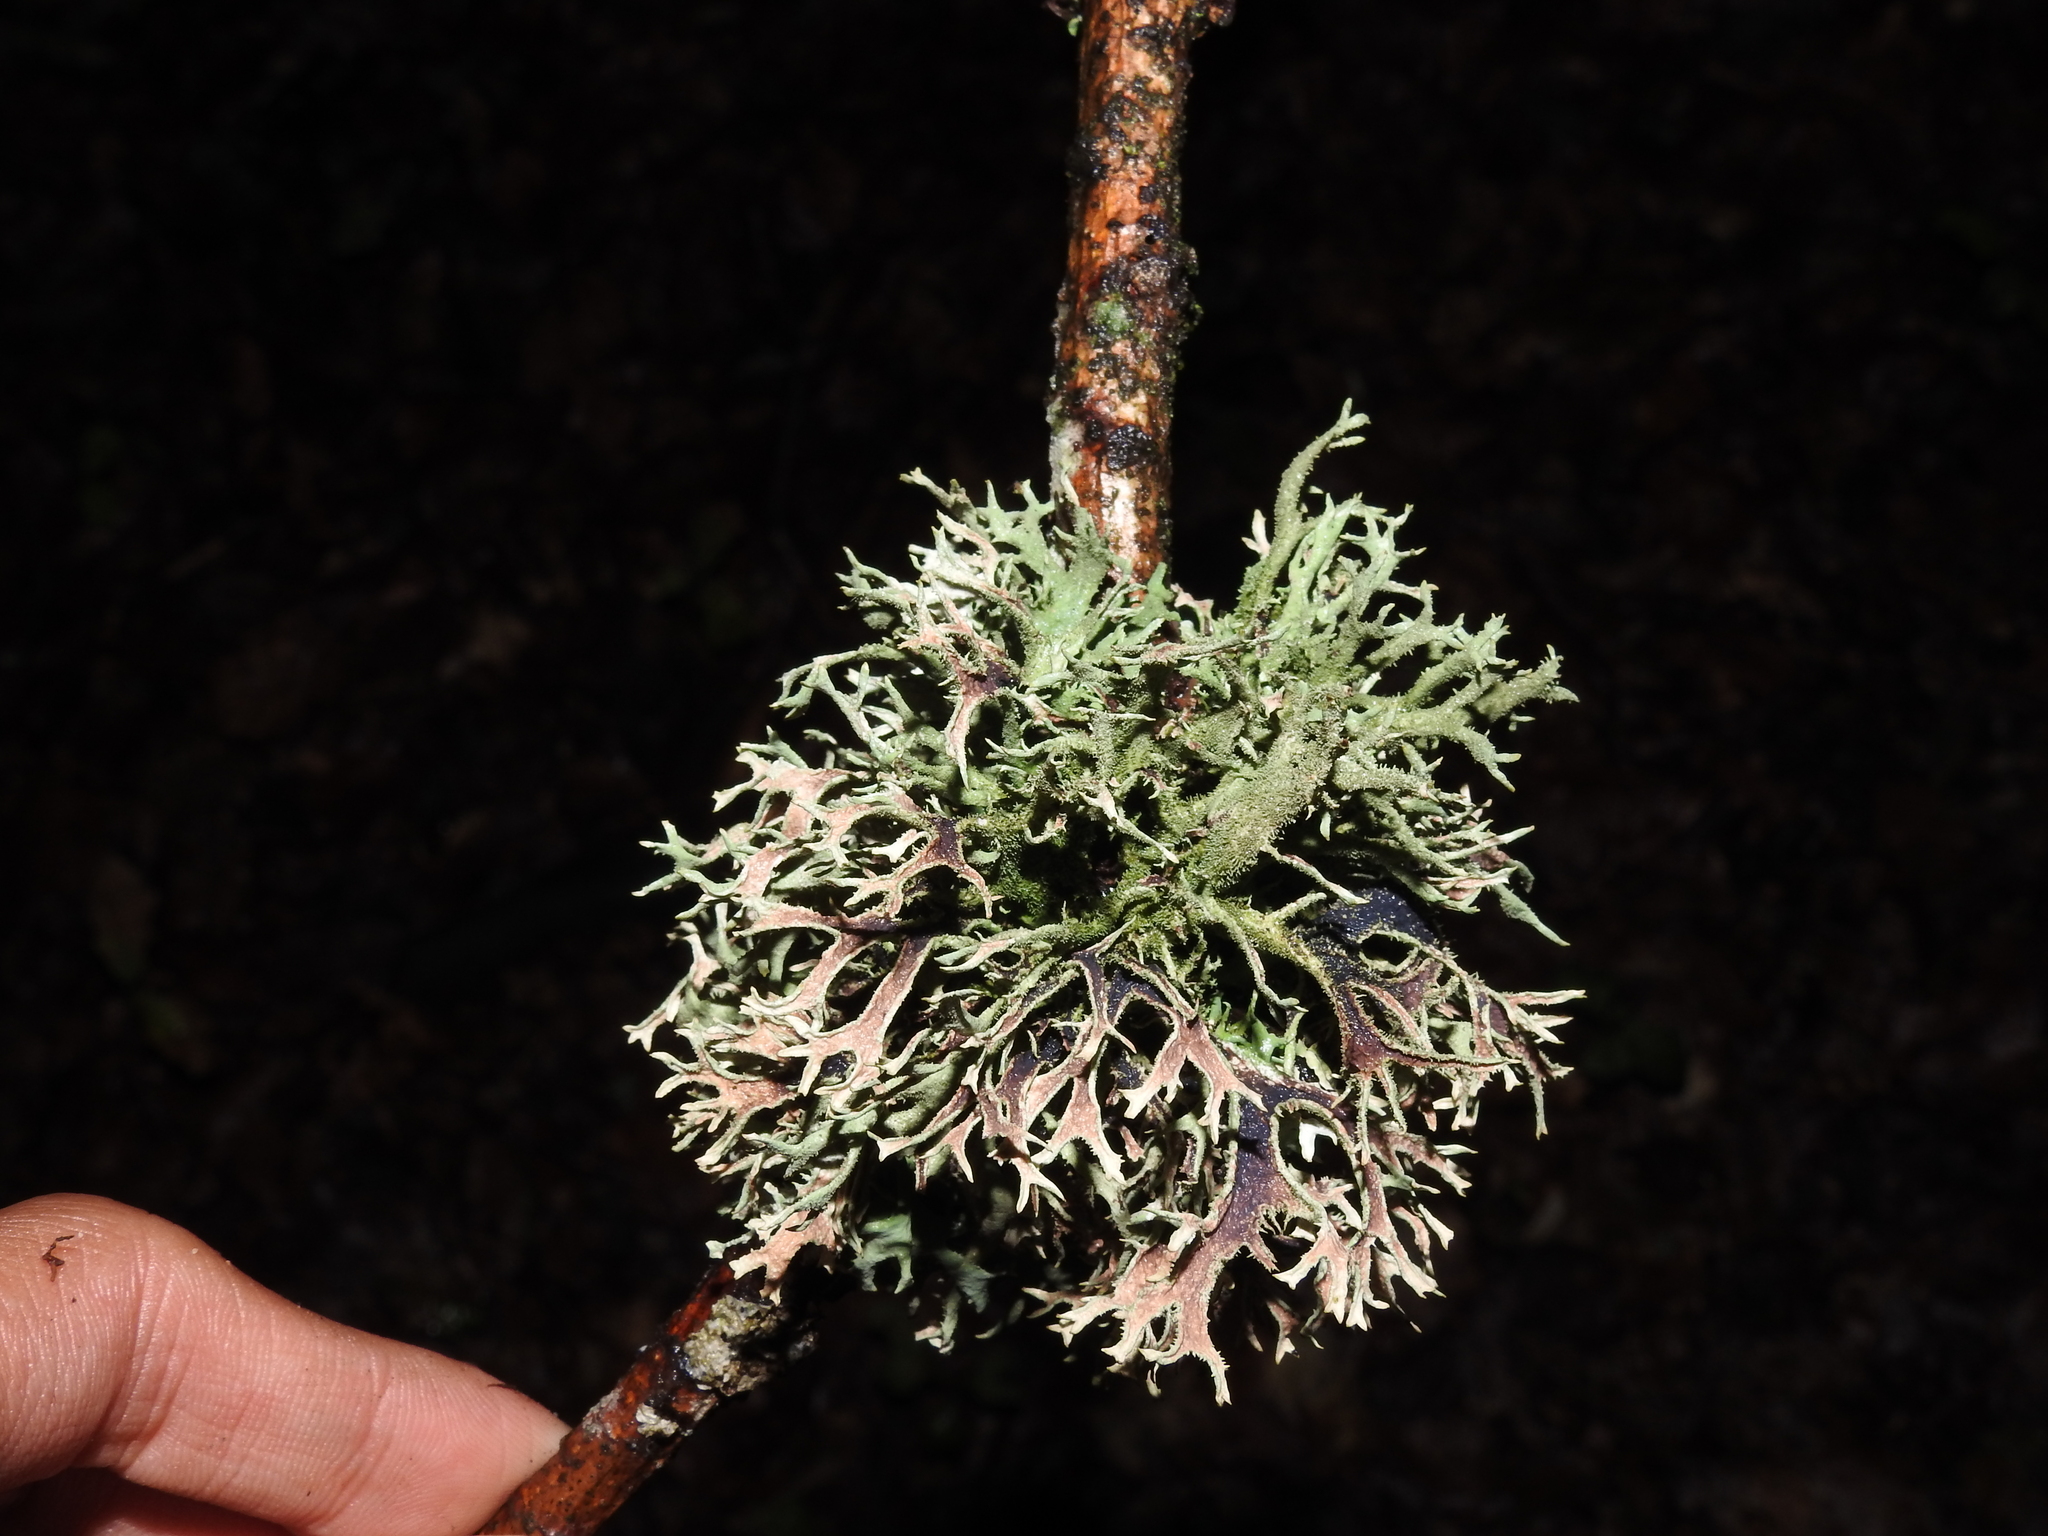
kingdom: Fungi
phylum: Ascomycota
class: Lecanoromycetes
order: Lecanorales
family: Parmeliaceae
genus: Pseudevernia
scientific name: Pseudevernia furfuracea
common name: Tree moss
